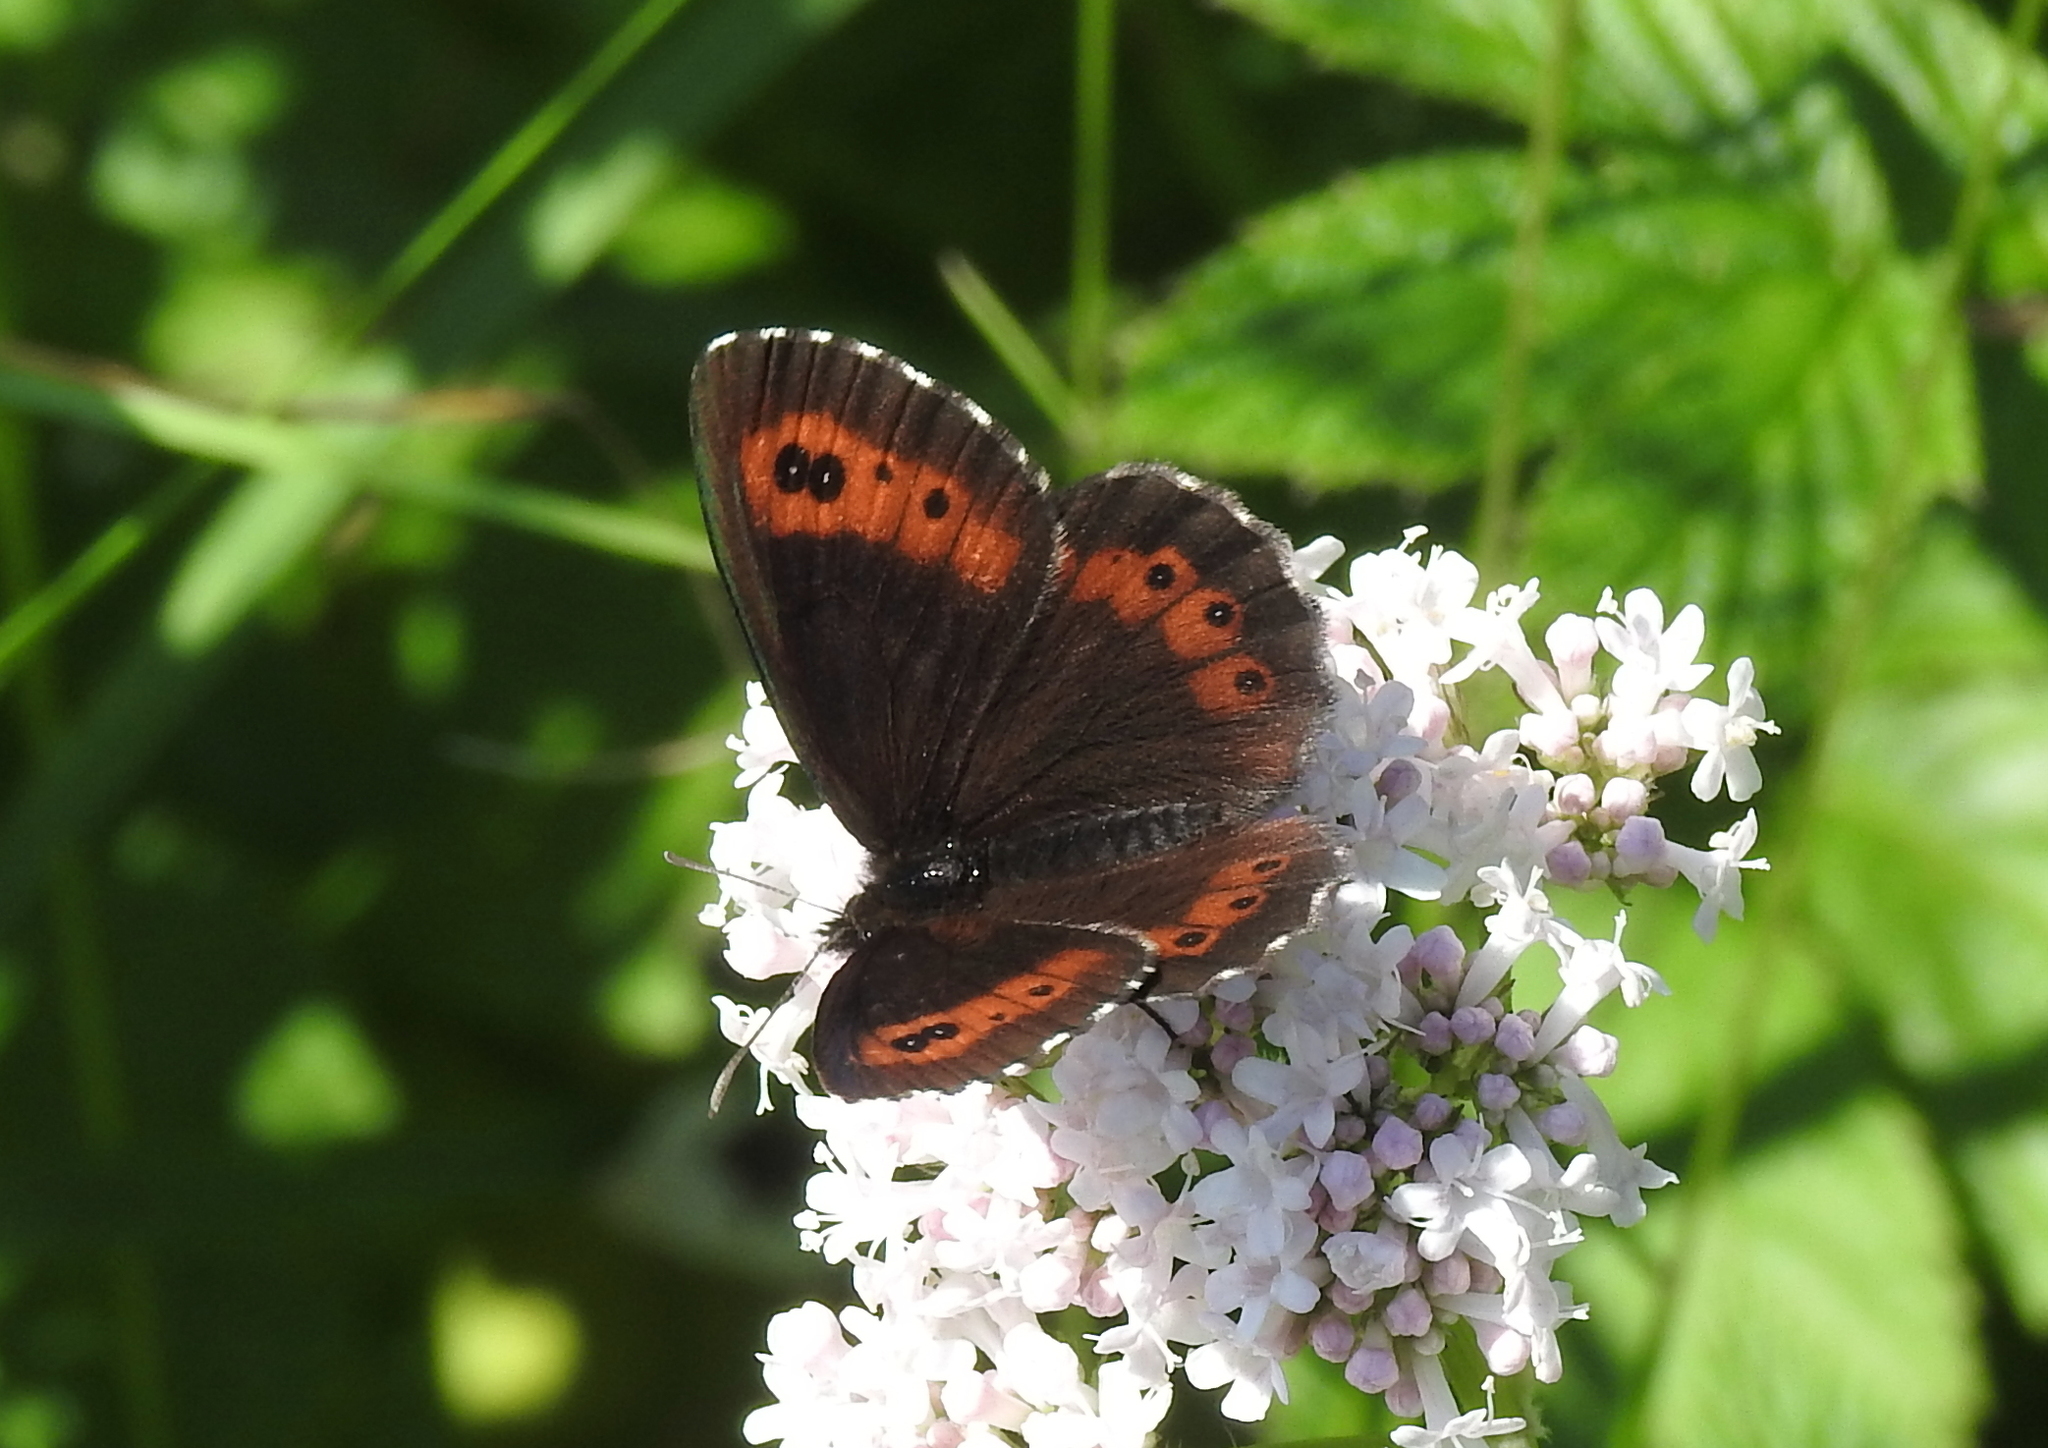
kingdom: Animalia
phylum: Arthropoda
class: Insecta
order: Lepidoptera
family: Nymphalidae
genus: Erebia
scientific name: Erebia ligea
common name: Arran brown
